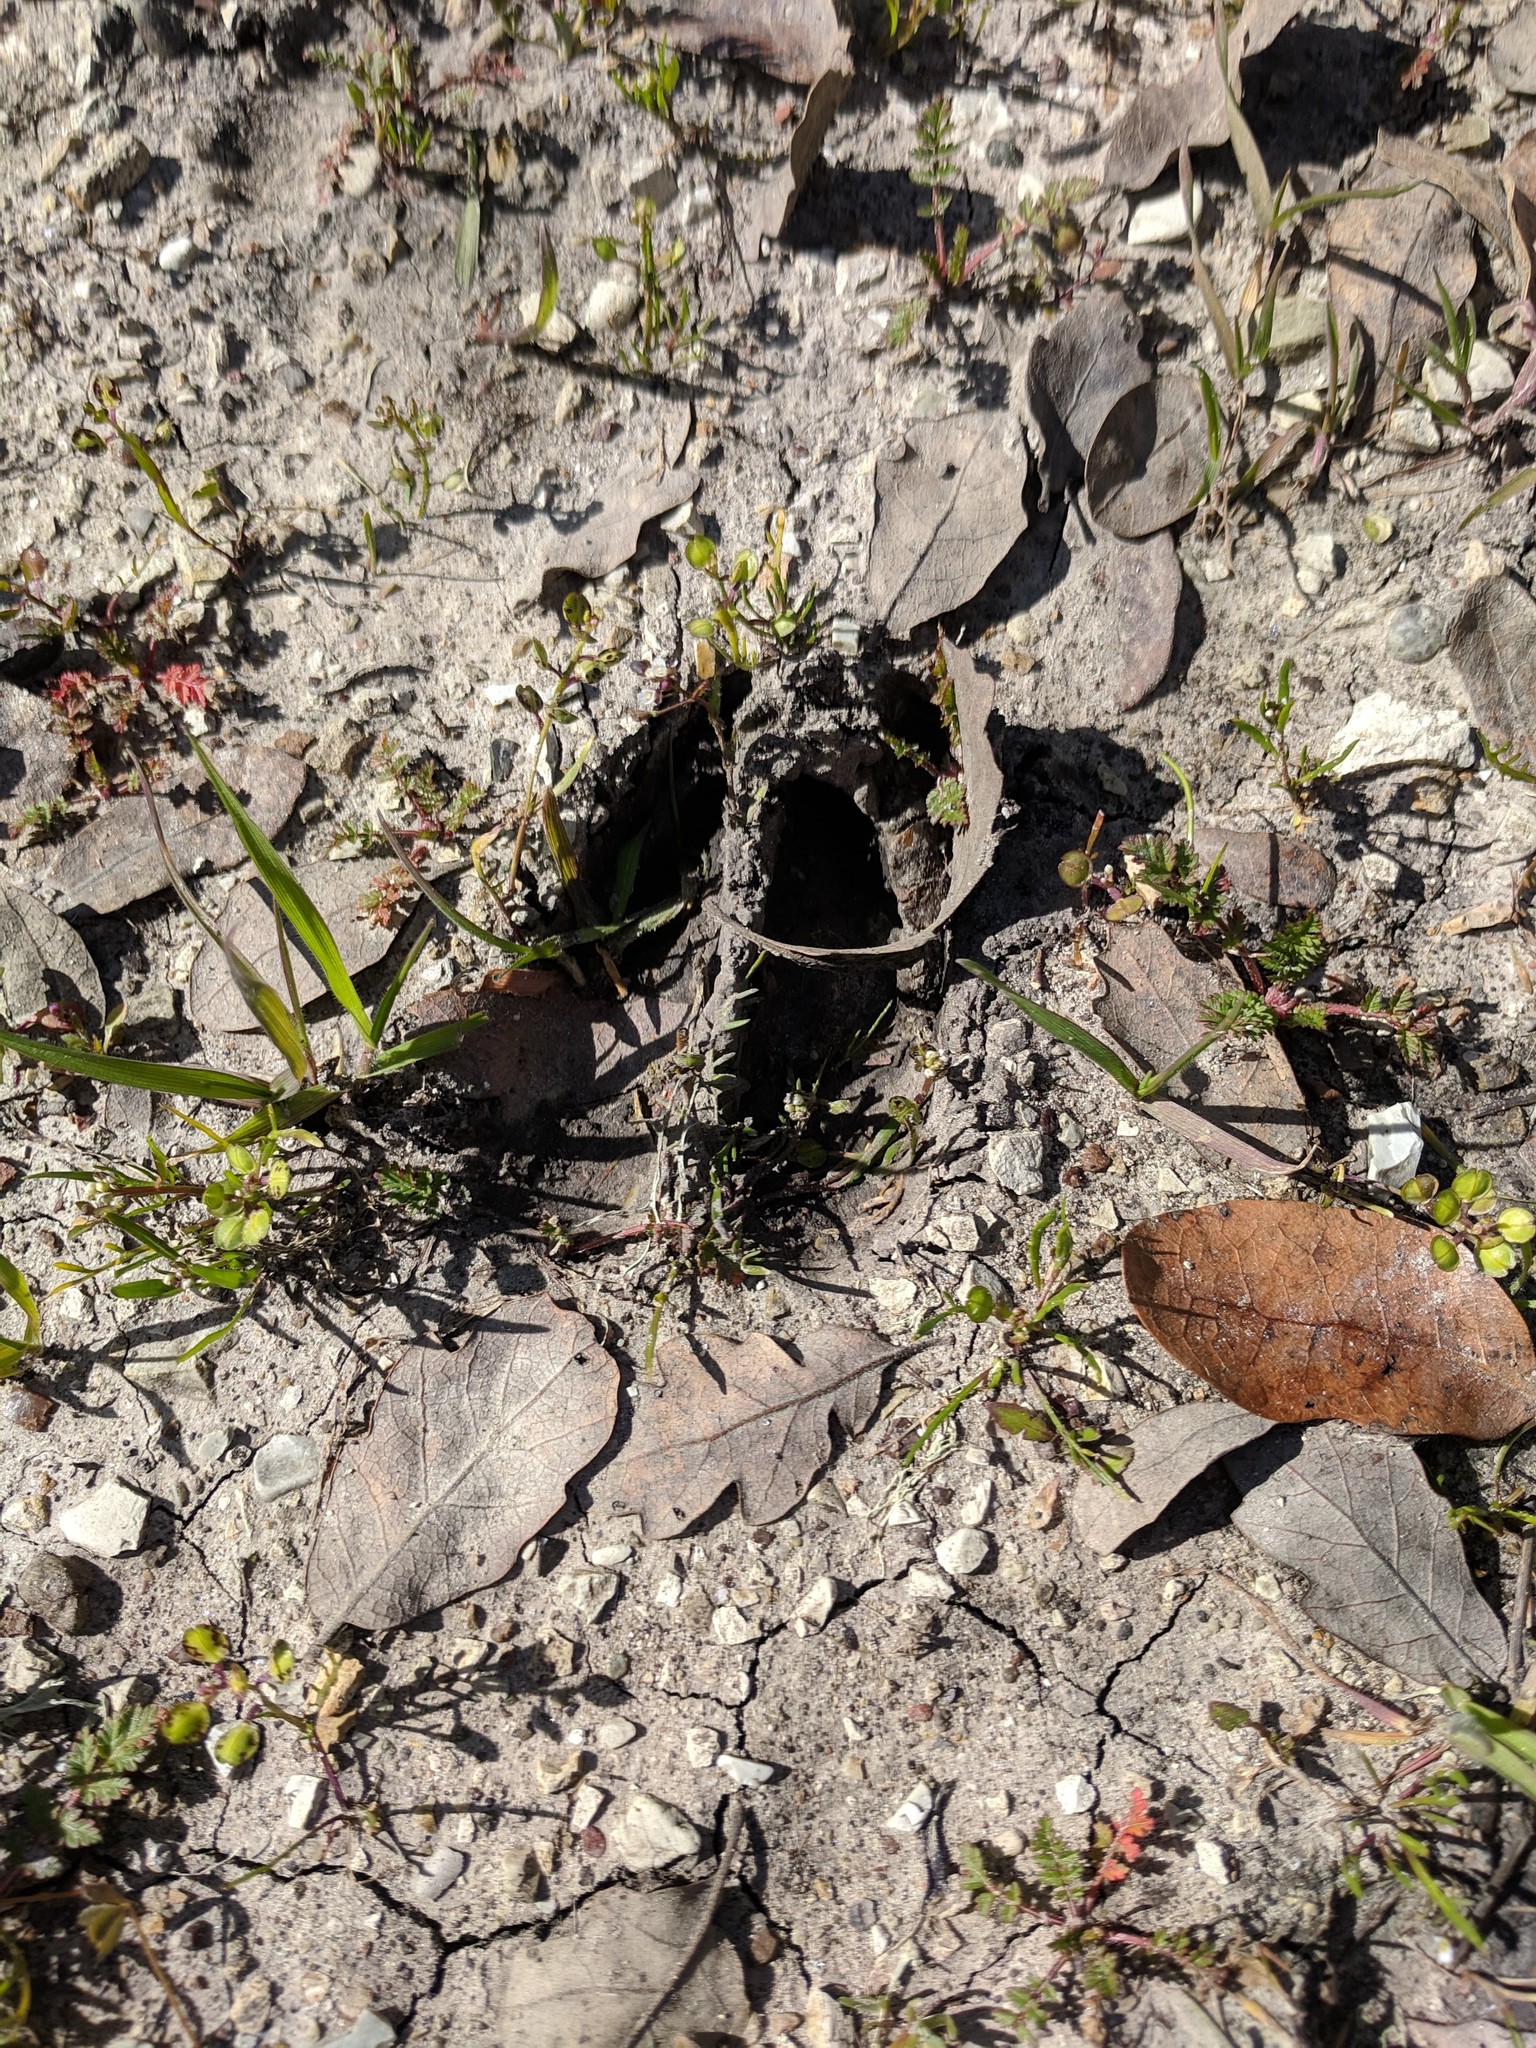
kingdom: Animalia
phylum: Chordata
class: Mammalia
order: Artiodactyla
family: Cervidae
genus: Odocoileus
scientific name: Odocoileus hemionus
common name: Mule deer
